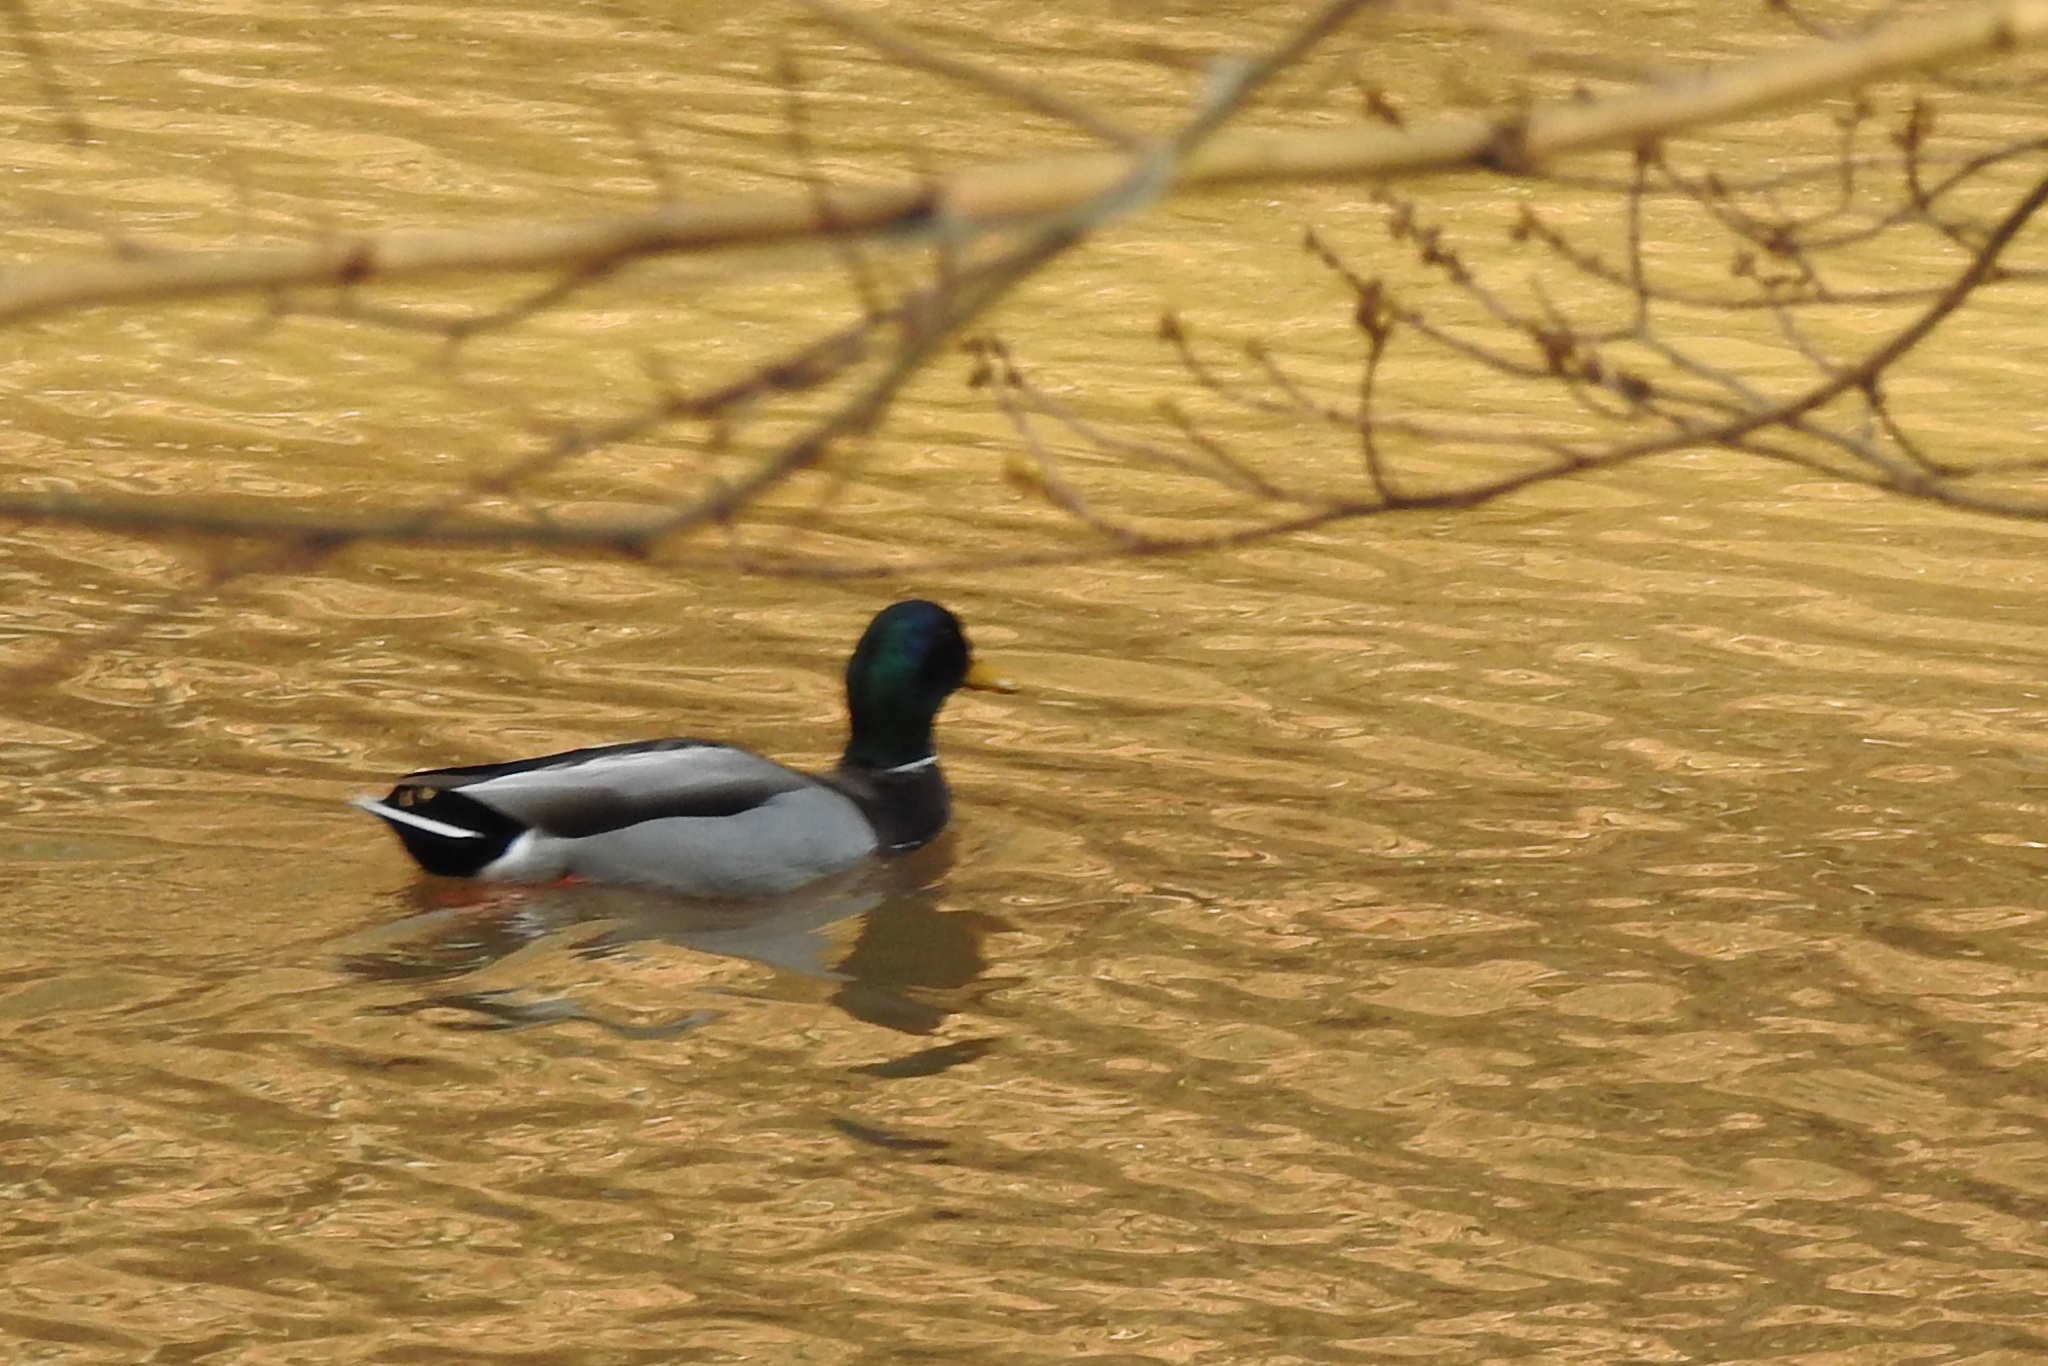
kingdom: Animalia
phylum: Chordata
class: Aves
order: Anseriformes
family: Anatidae
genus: Anas
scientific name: Anas platyrhynchos
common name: Mallard
